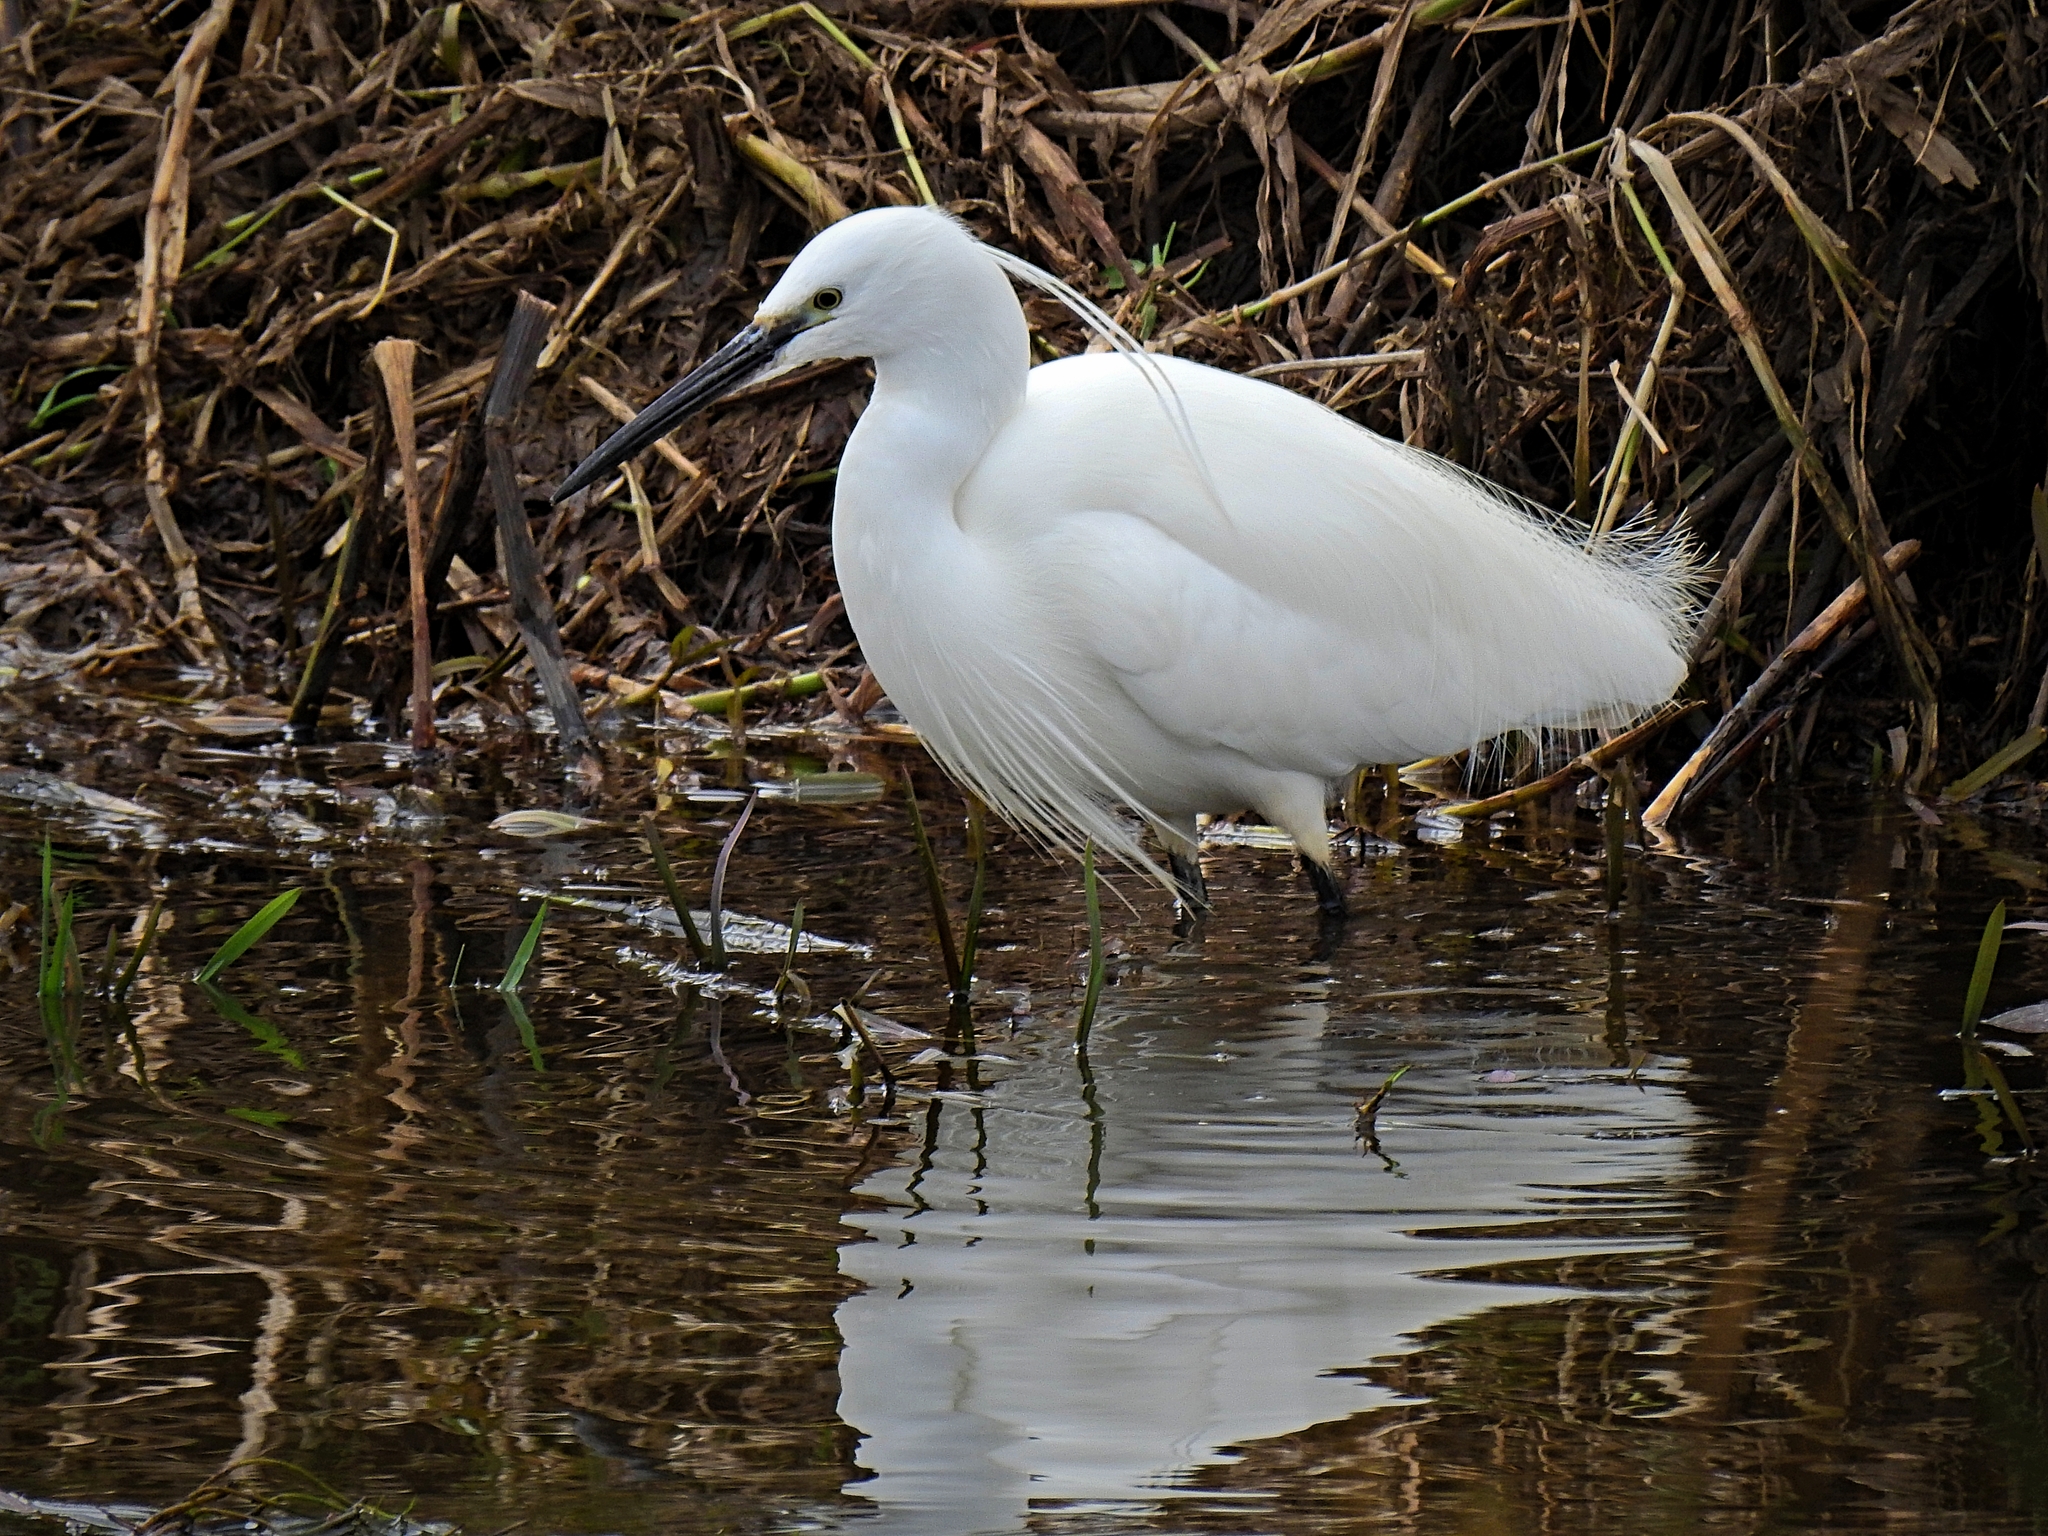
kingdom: Animalia
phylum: Chordata
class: Aves
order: Pelecaniformes
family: Ardeidae
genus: Egretta
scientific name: Egretta garzetta
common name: Little egret
